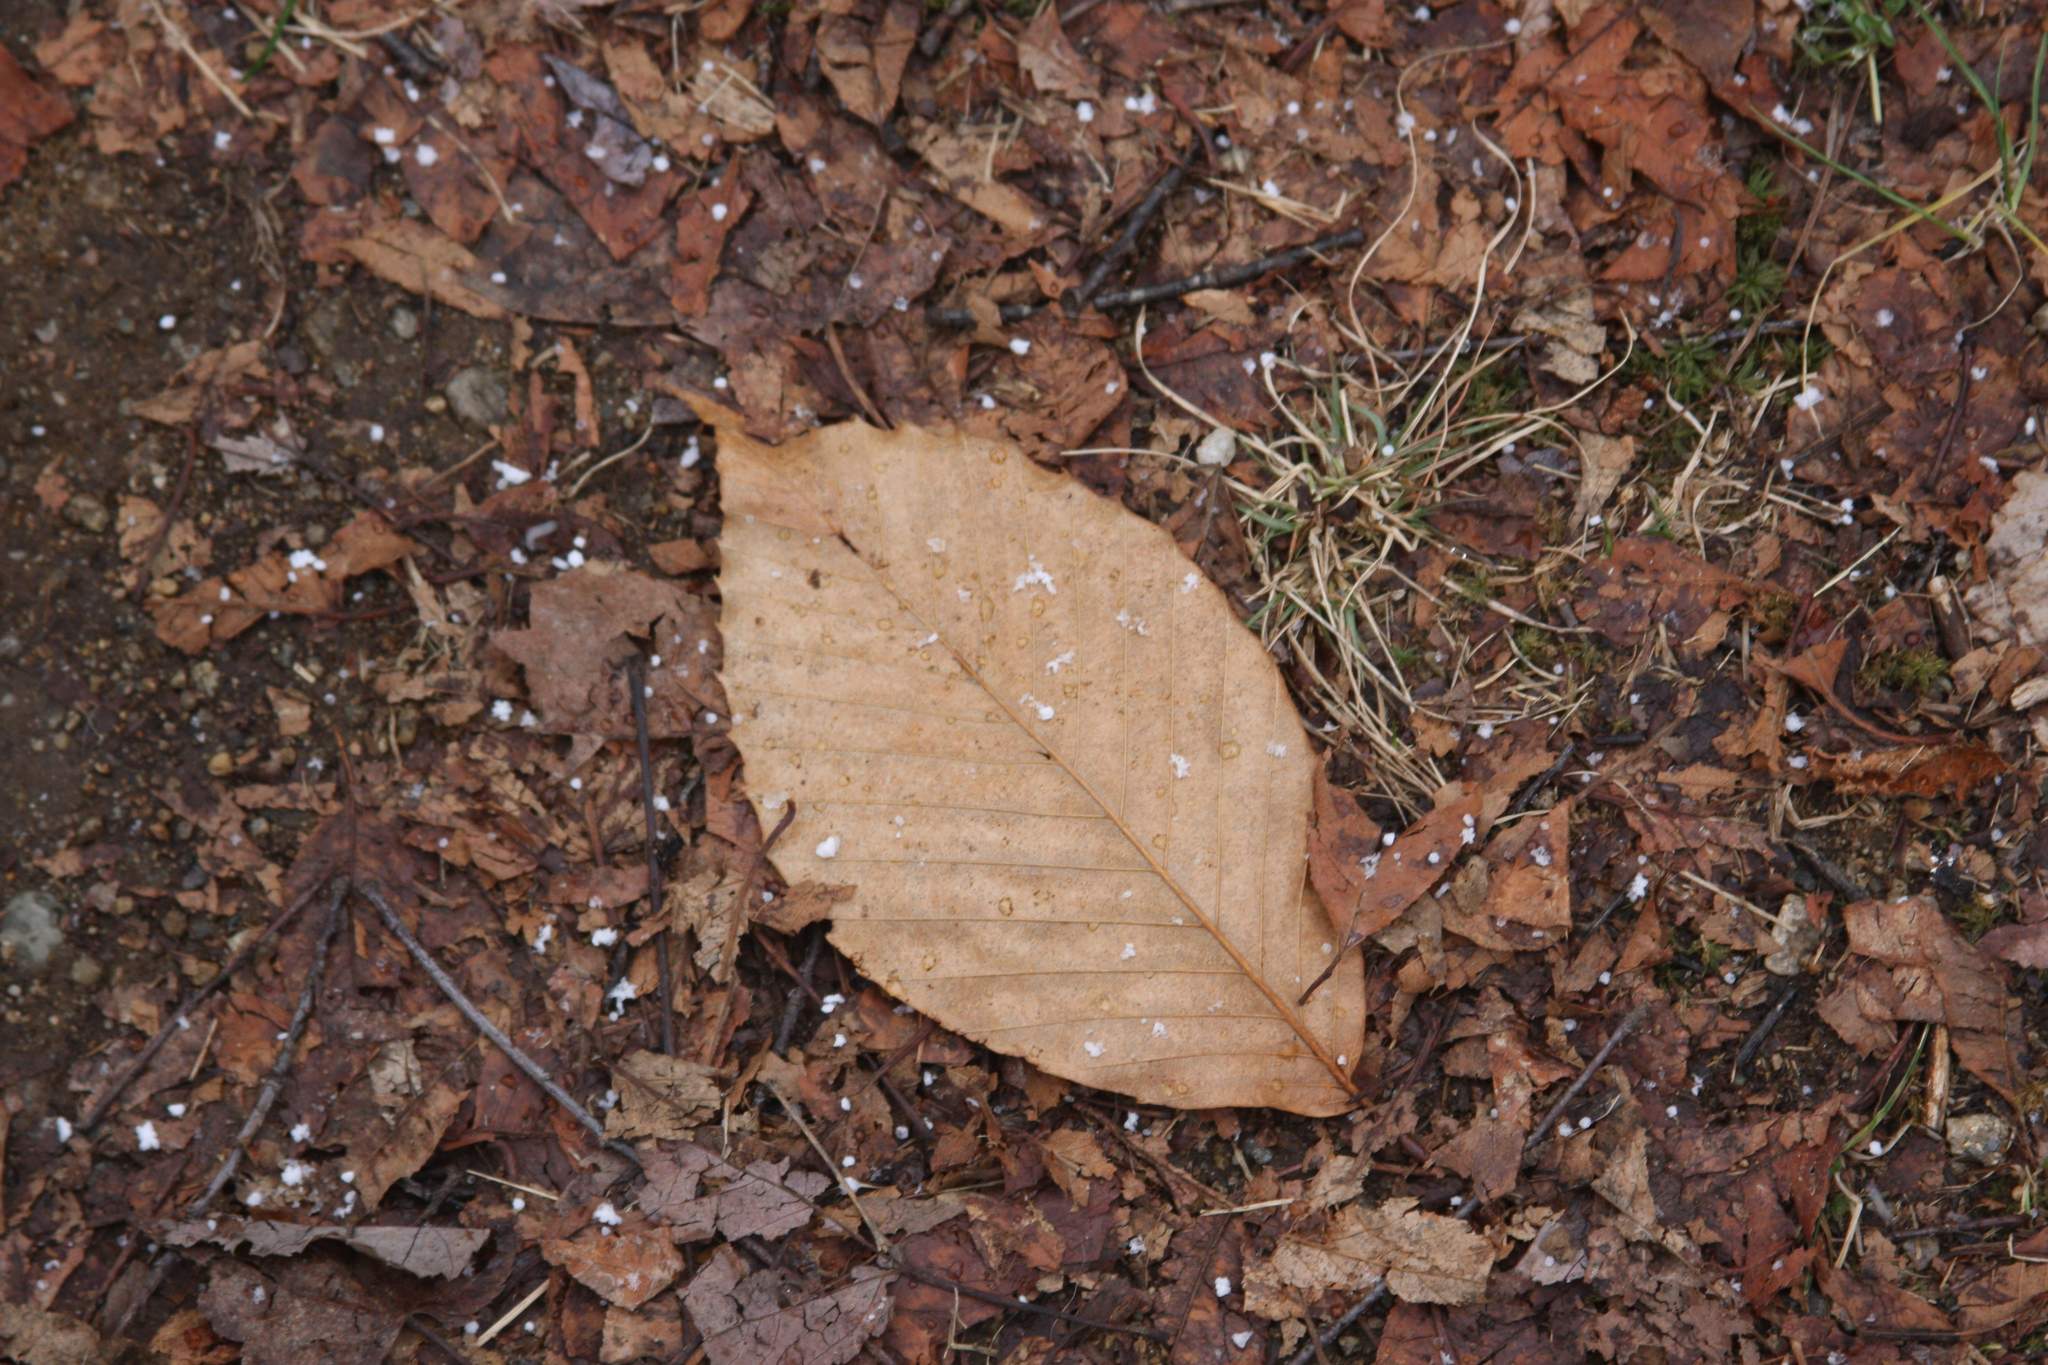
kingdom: Plantae
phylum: Tracheophyta
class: Magnoliopsida
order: Fagales
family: Fagaceae
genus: Fagus
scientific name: Fagus grandifolia
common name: American beech
